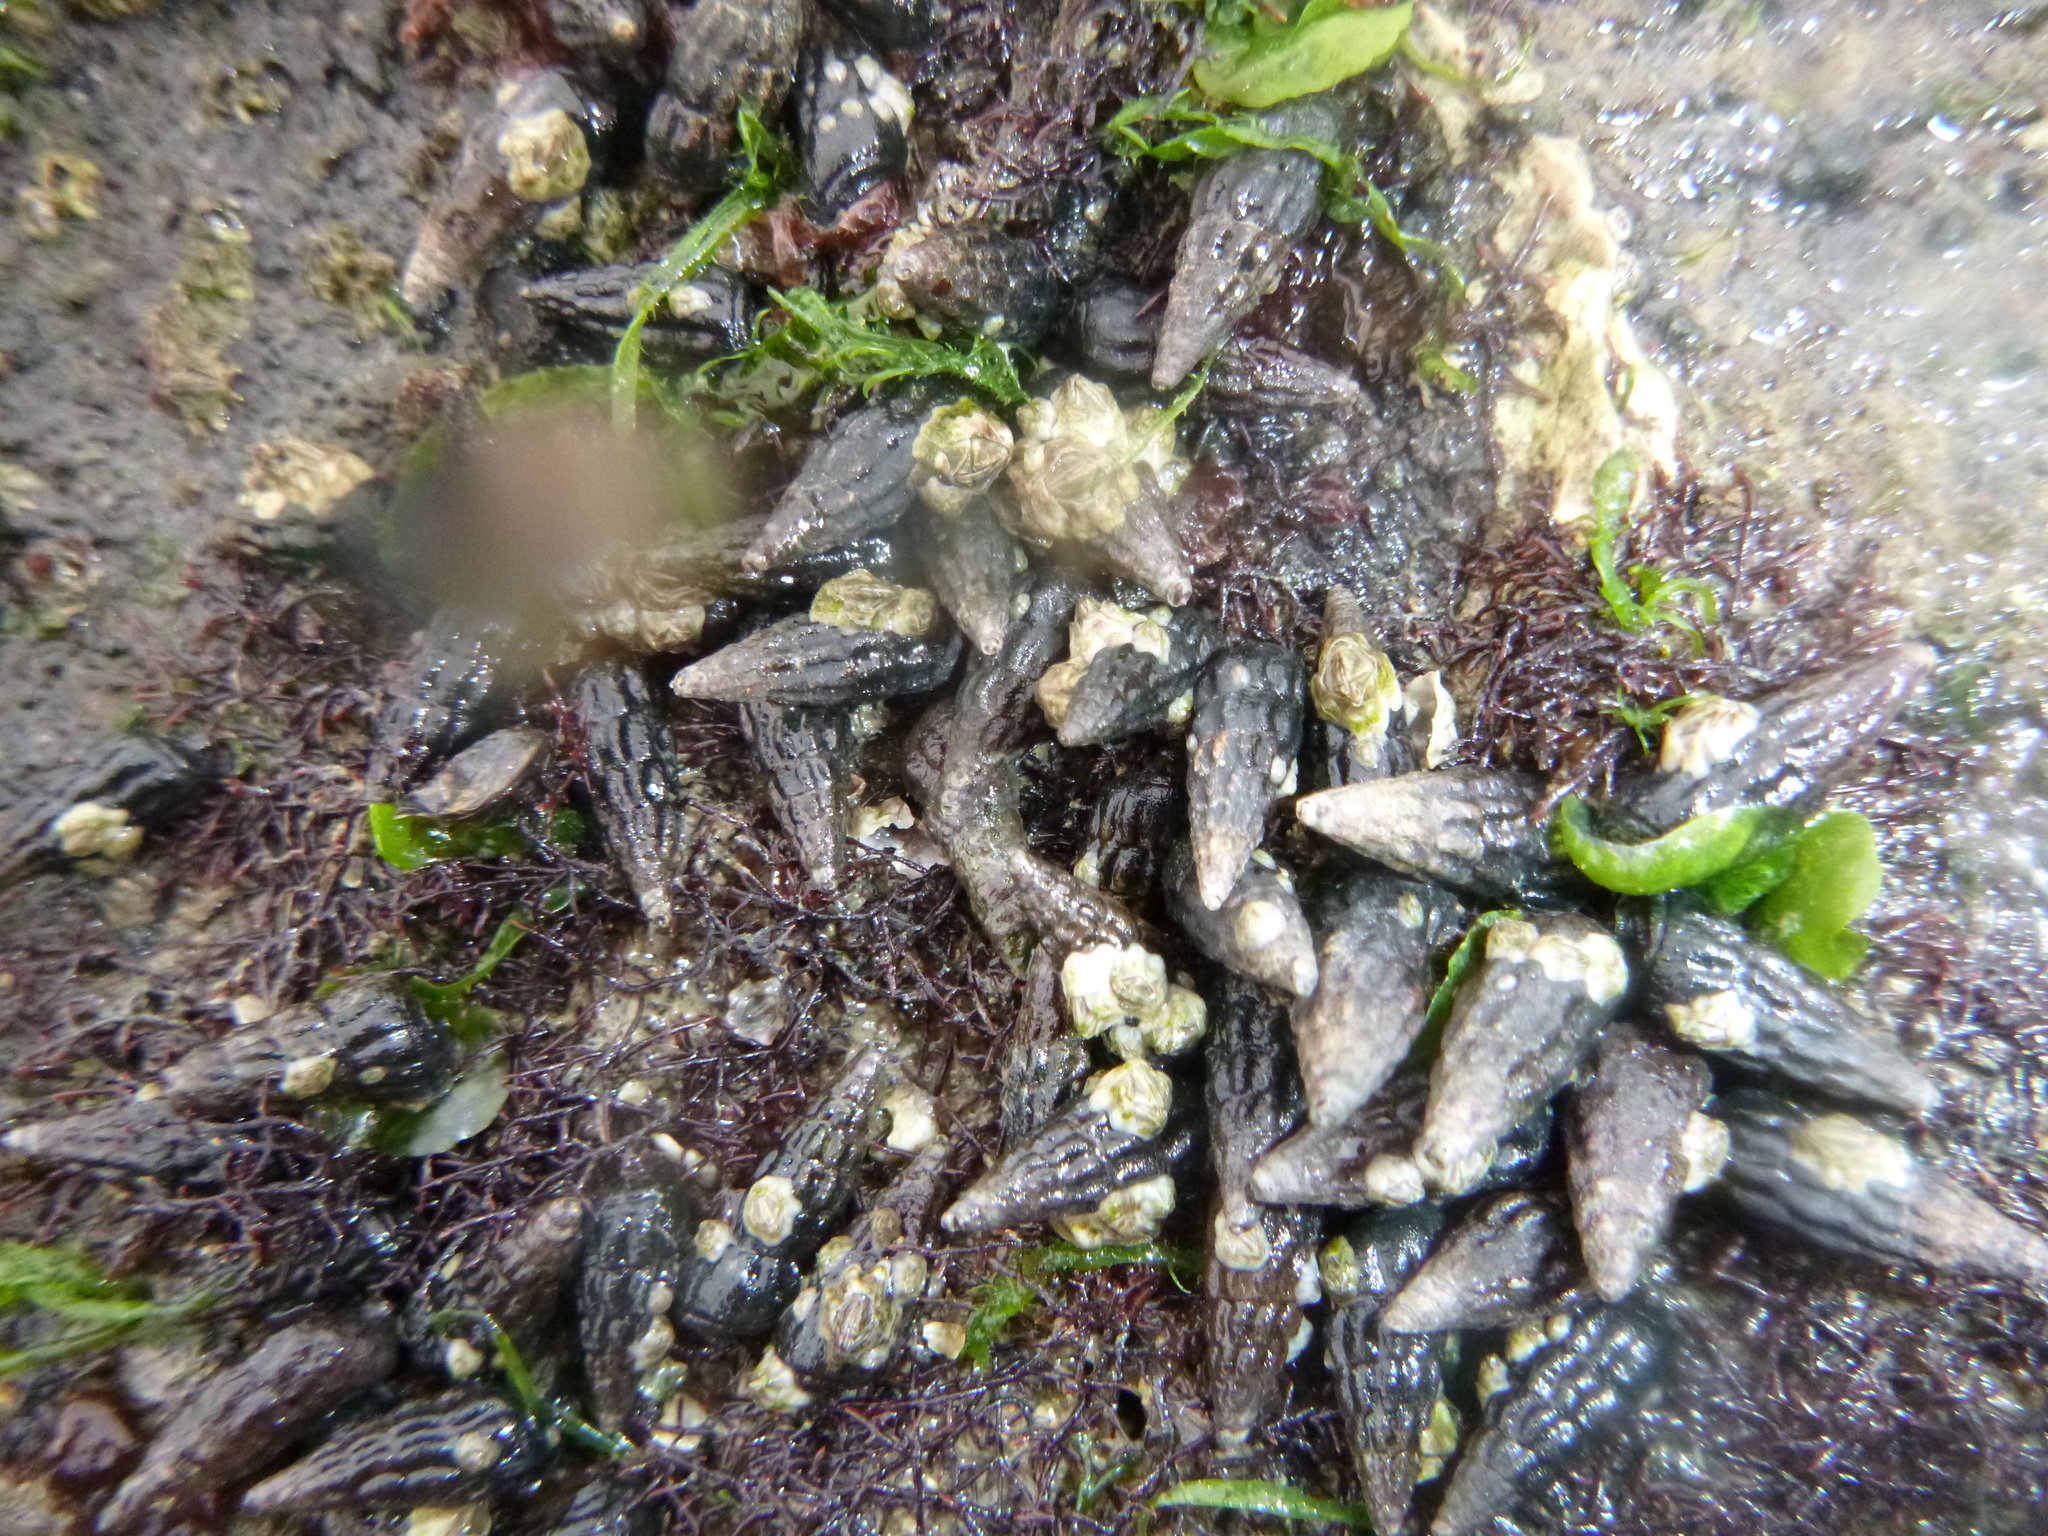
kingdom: Animalia
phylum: Mollusca
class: Gastropoda
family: Batillariidae
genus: Zeacumantus
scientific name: Zeacumantus subcarinatus
